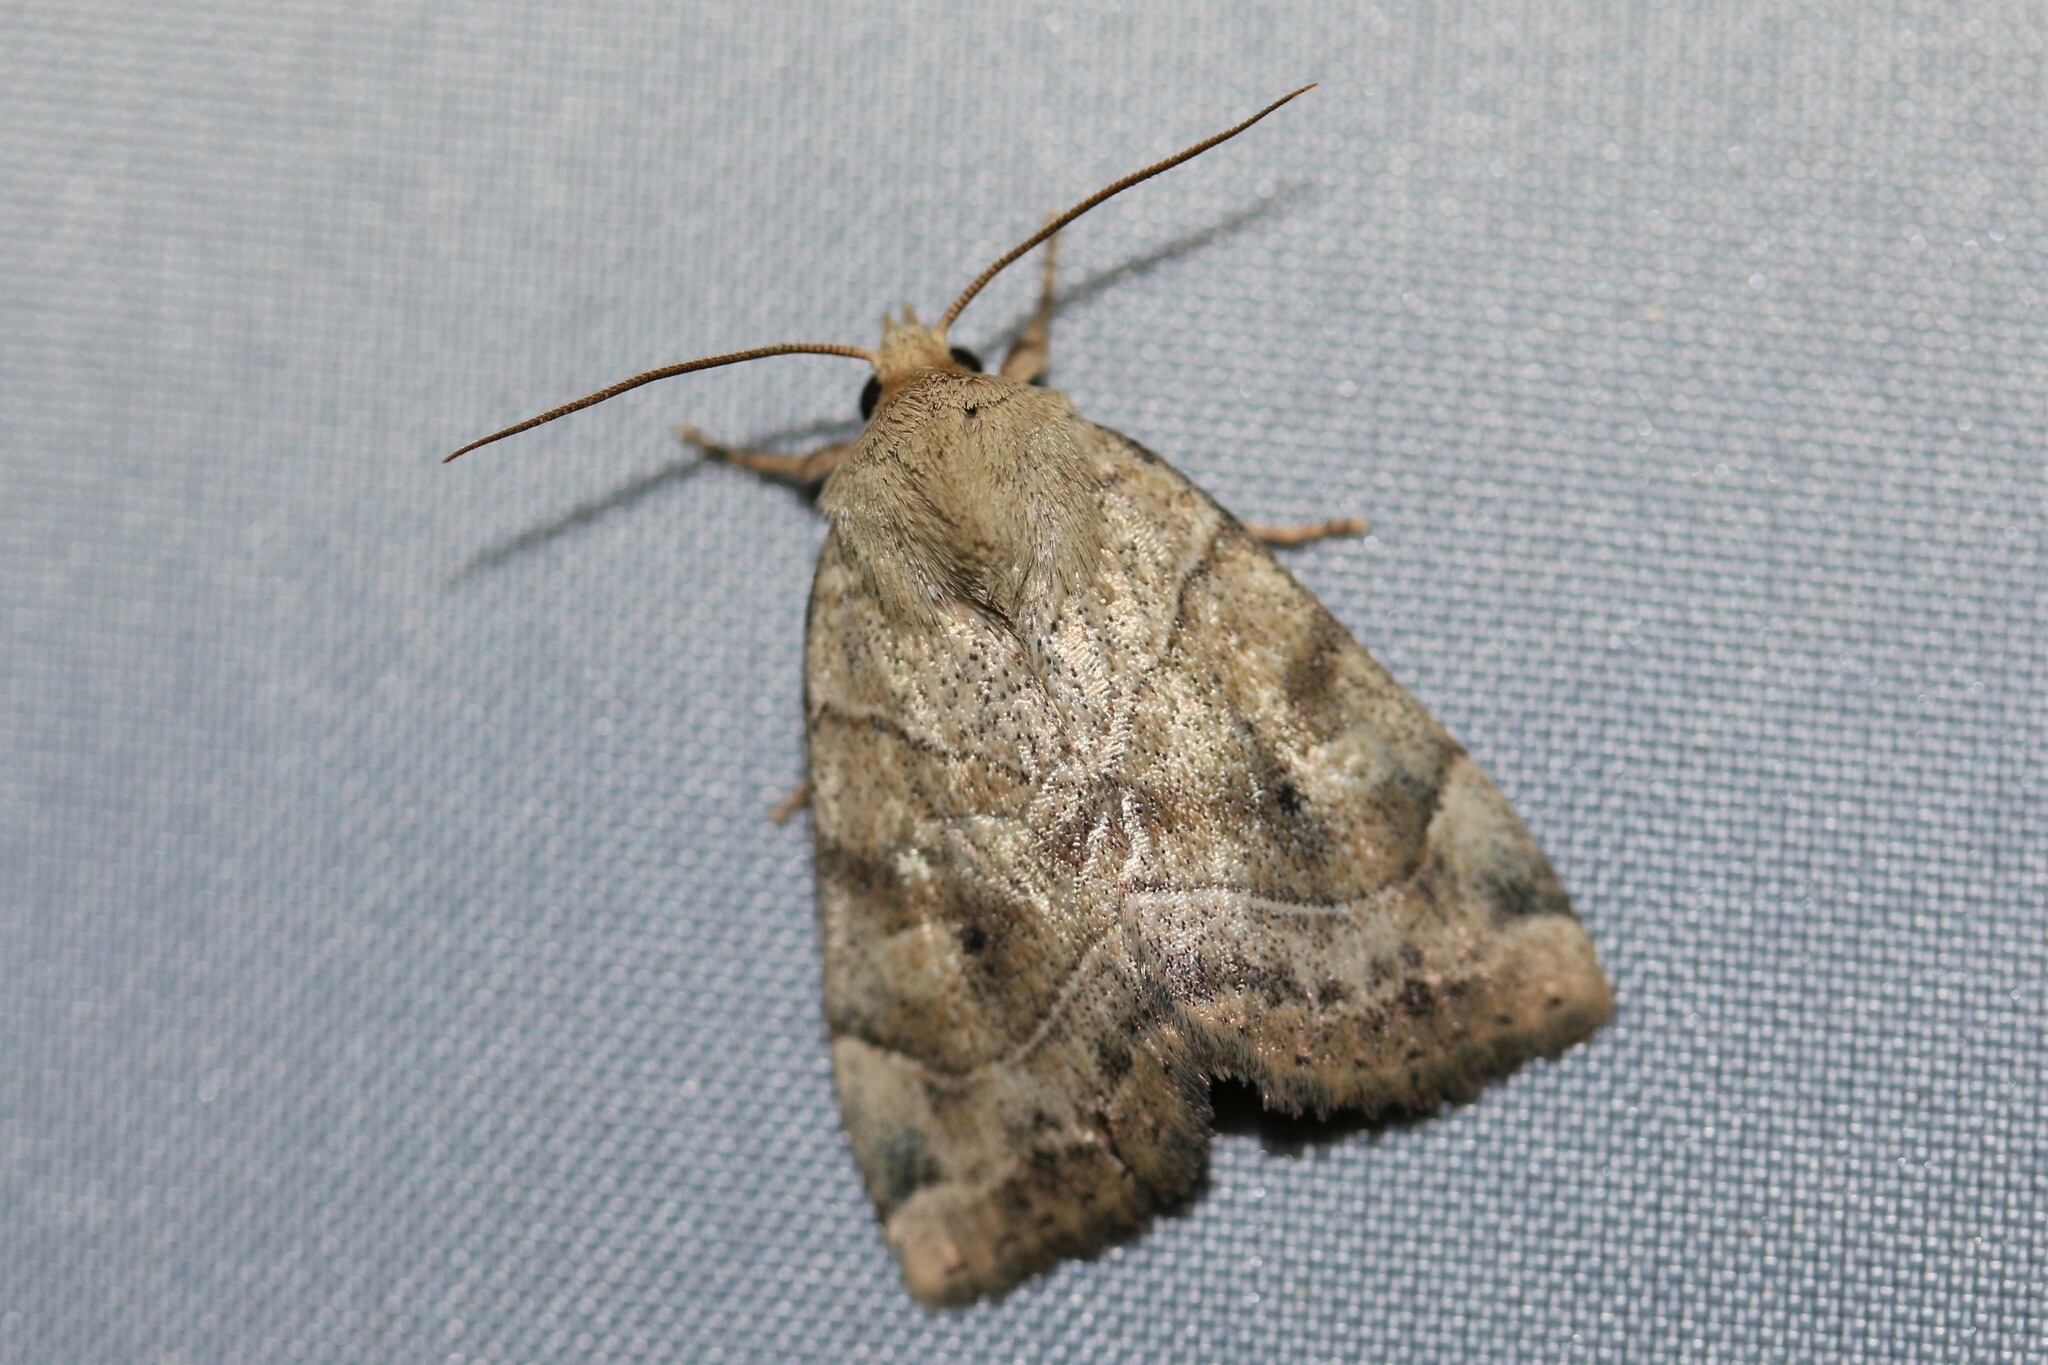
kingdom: Animalia
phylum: Arthropoda
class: Insecta
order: Lepidoptera
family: Noctuidae
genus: Cosmia
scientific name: Cosmia trapezina
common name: Dun-bar
